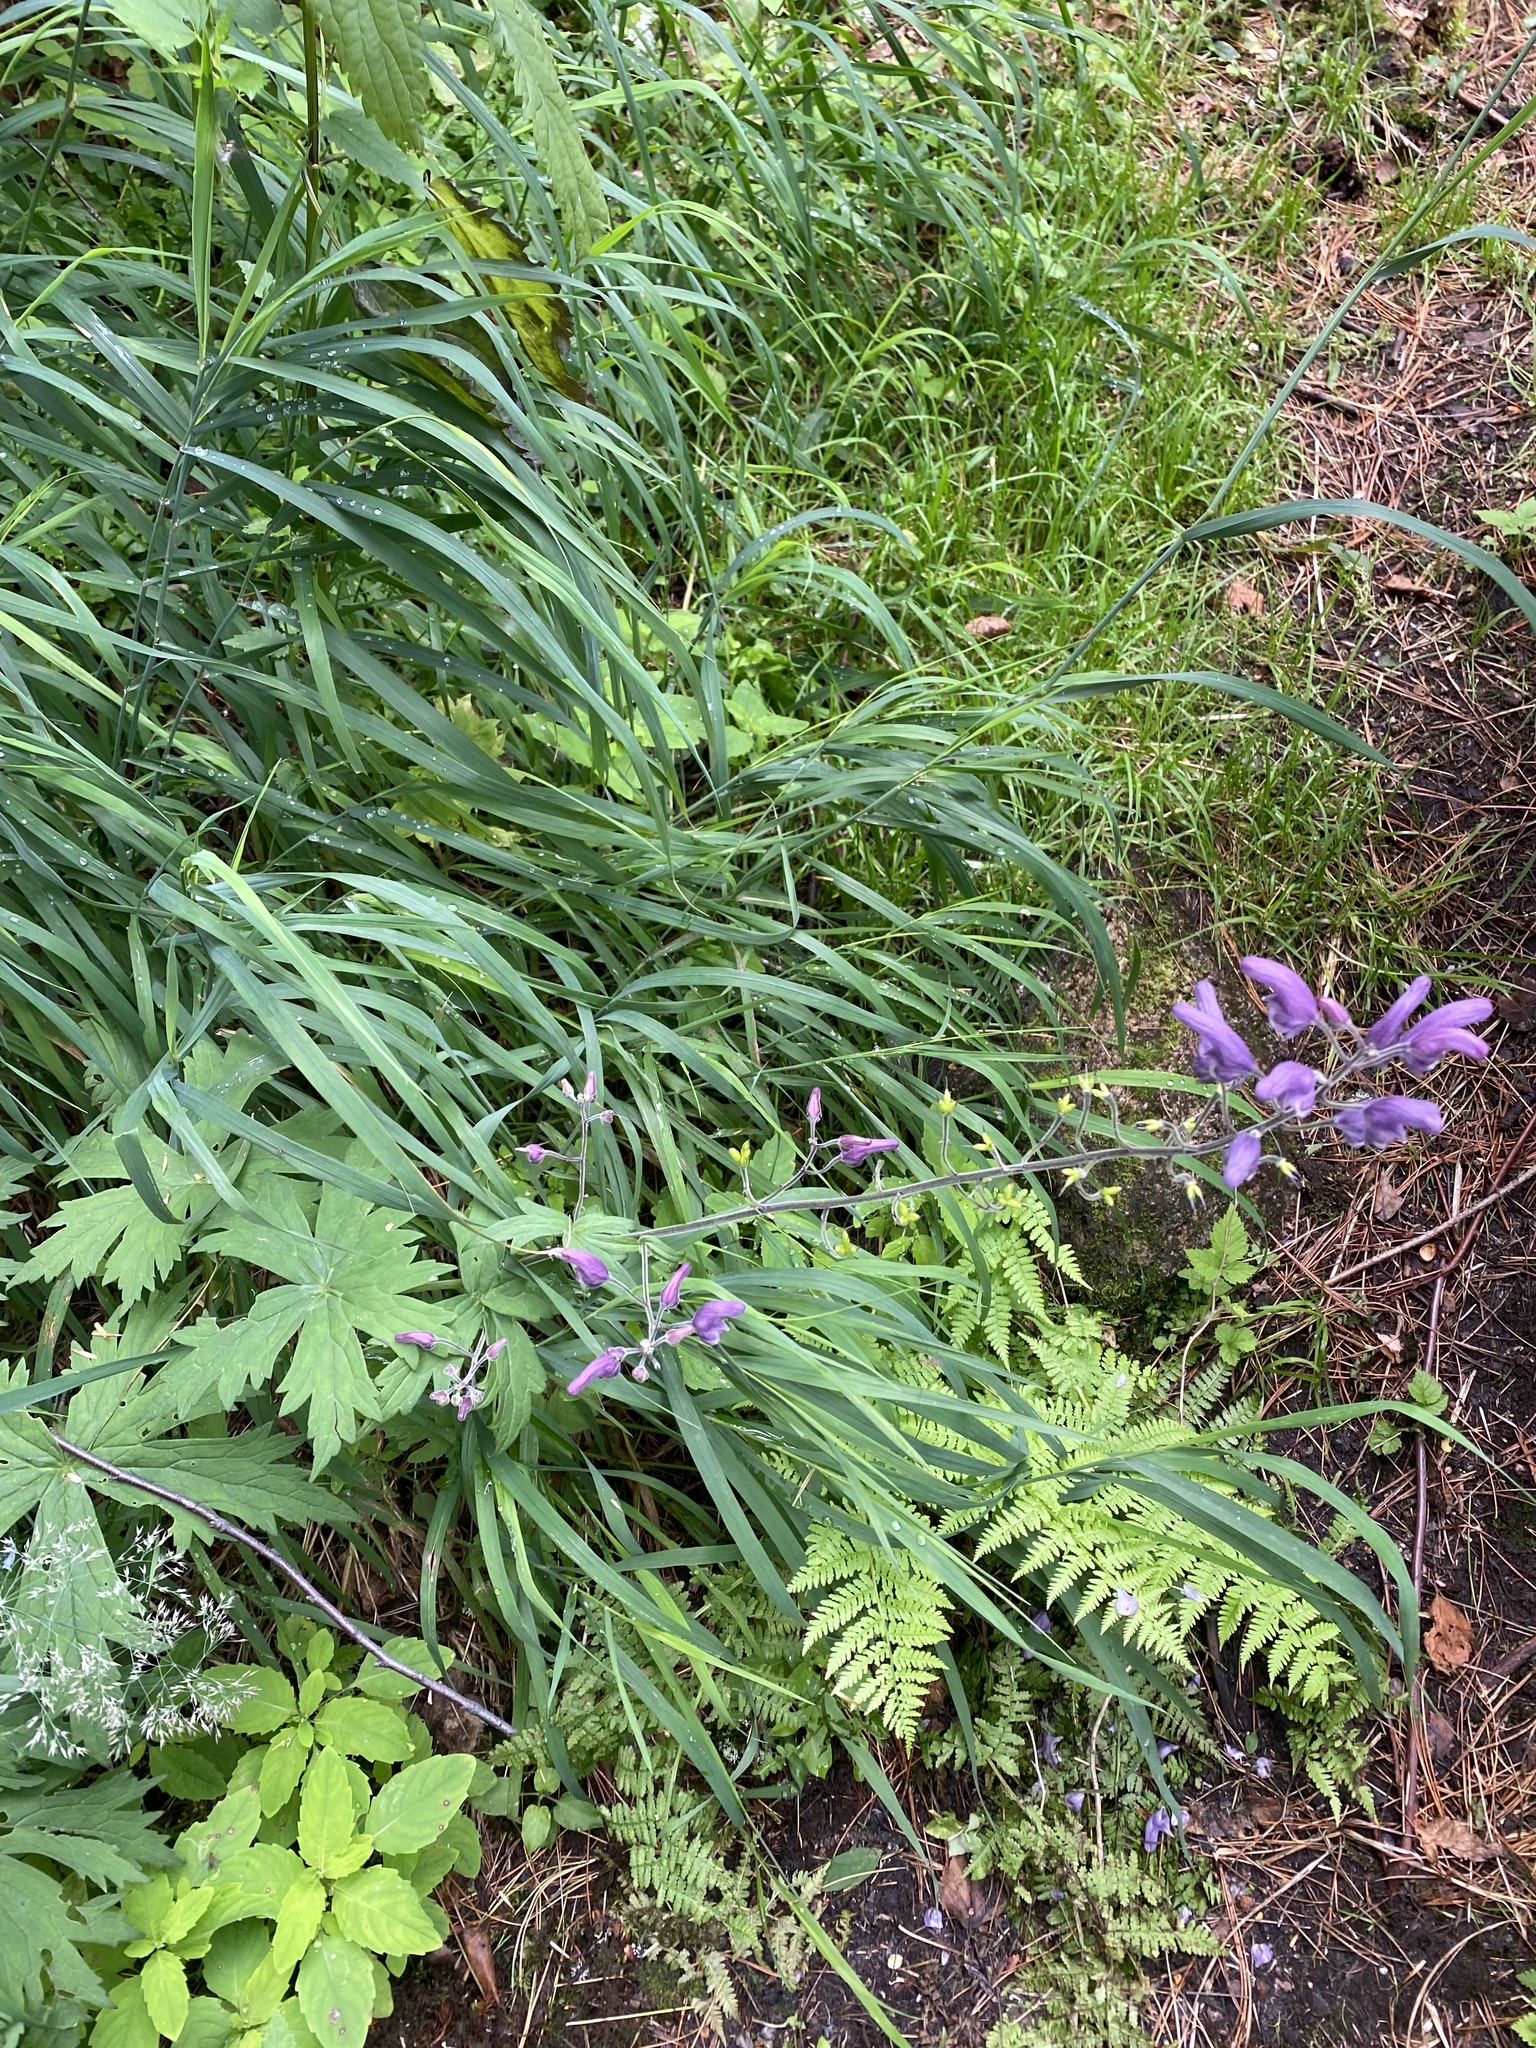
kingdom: Plantae
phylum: Tracheophyta
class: Magnoliopsida
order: Ranunculales
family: Ranunculaceae
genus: Aconitum
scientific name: Aconitum septentrionale
